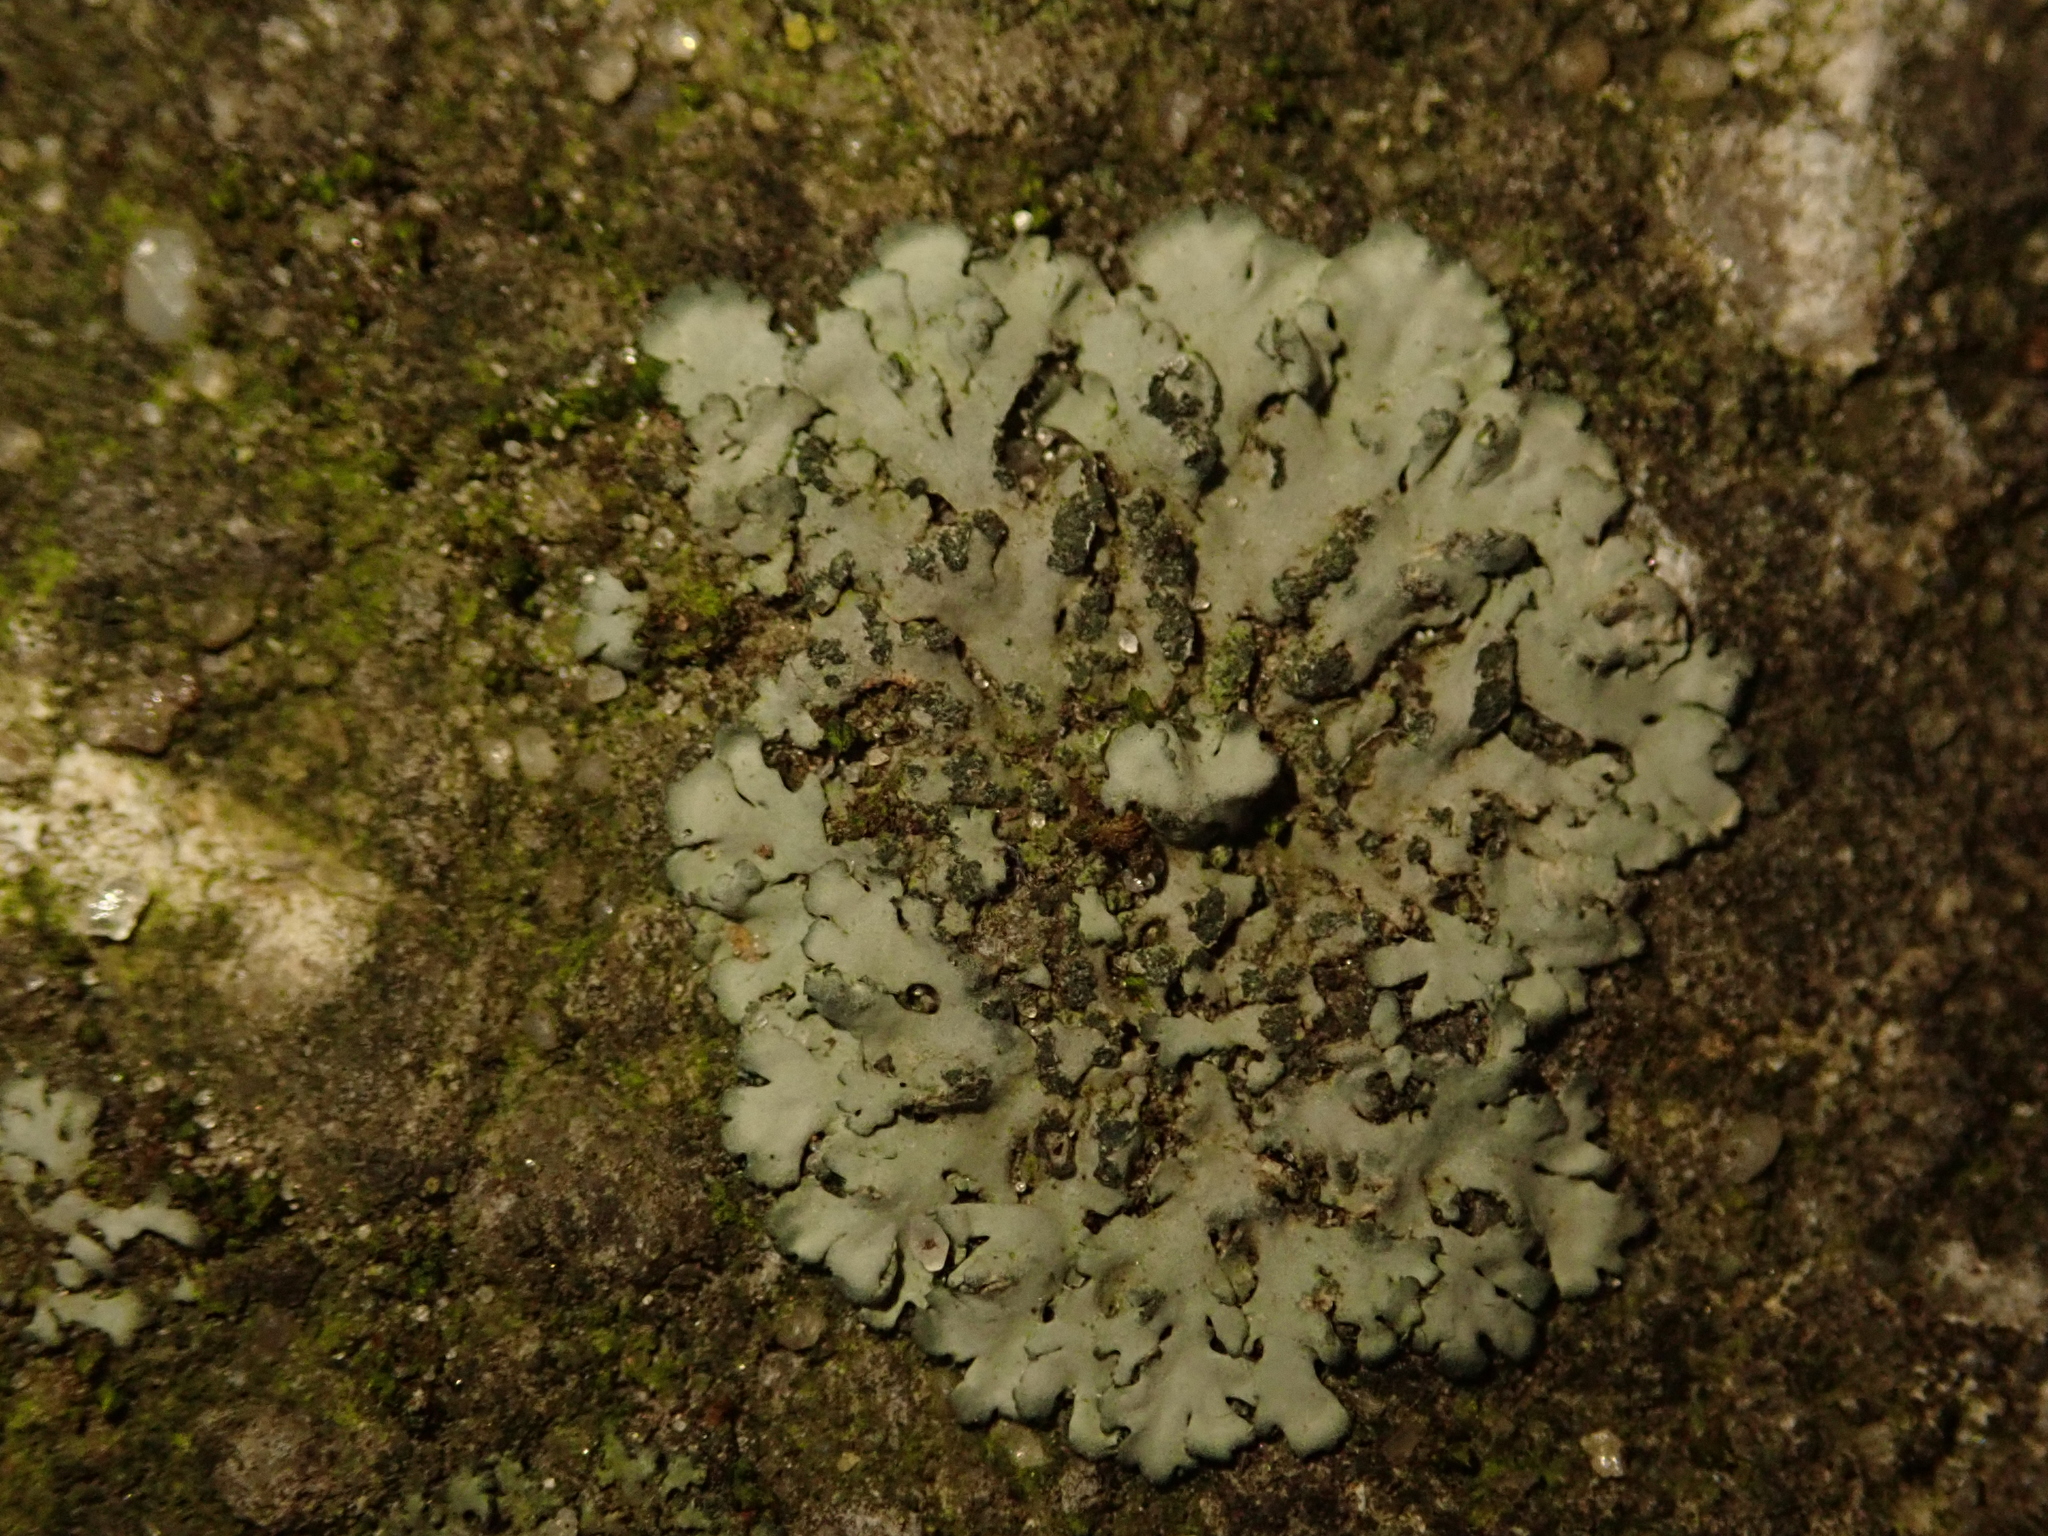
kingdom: Fungi
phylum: Ascomycota
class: Lecanoromycetes
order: Caliciales
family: Physciaceae
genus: Phaeophyscia
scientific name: Phaeophyscia orbicularis
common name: Mealy shadow lichen
